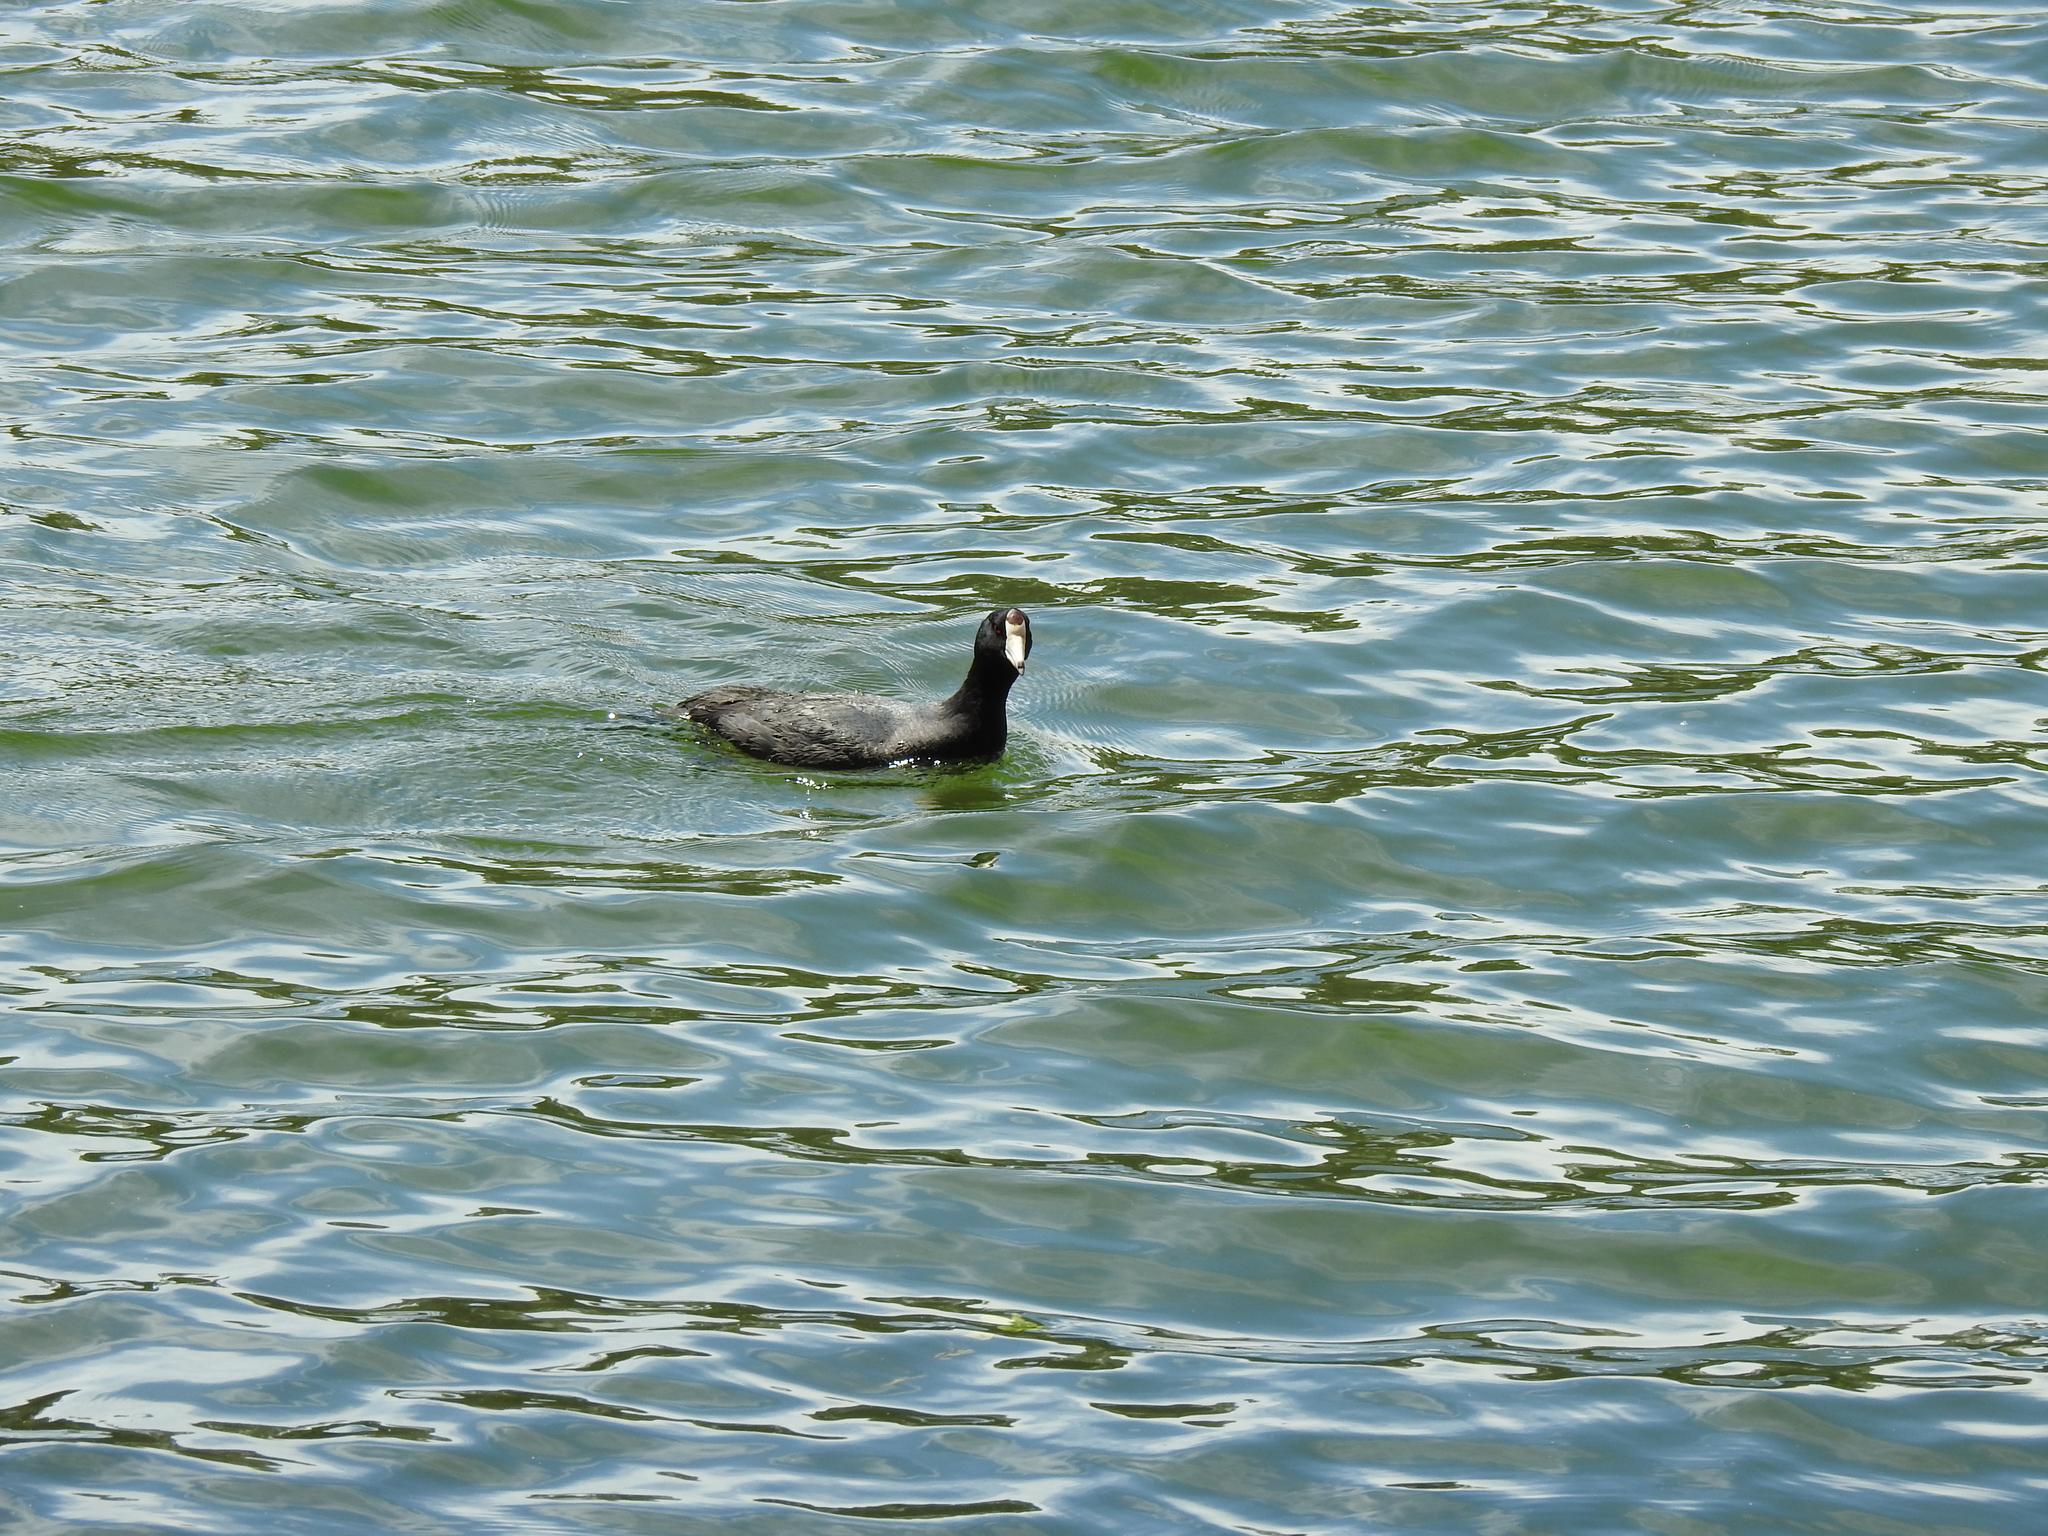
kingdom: Animalia
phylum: Chordata
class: Aves
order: Gruiformes
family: Rallidae
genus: Fulica
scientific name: Fulica americana
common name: American coot
